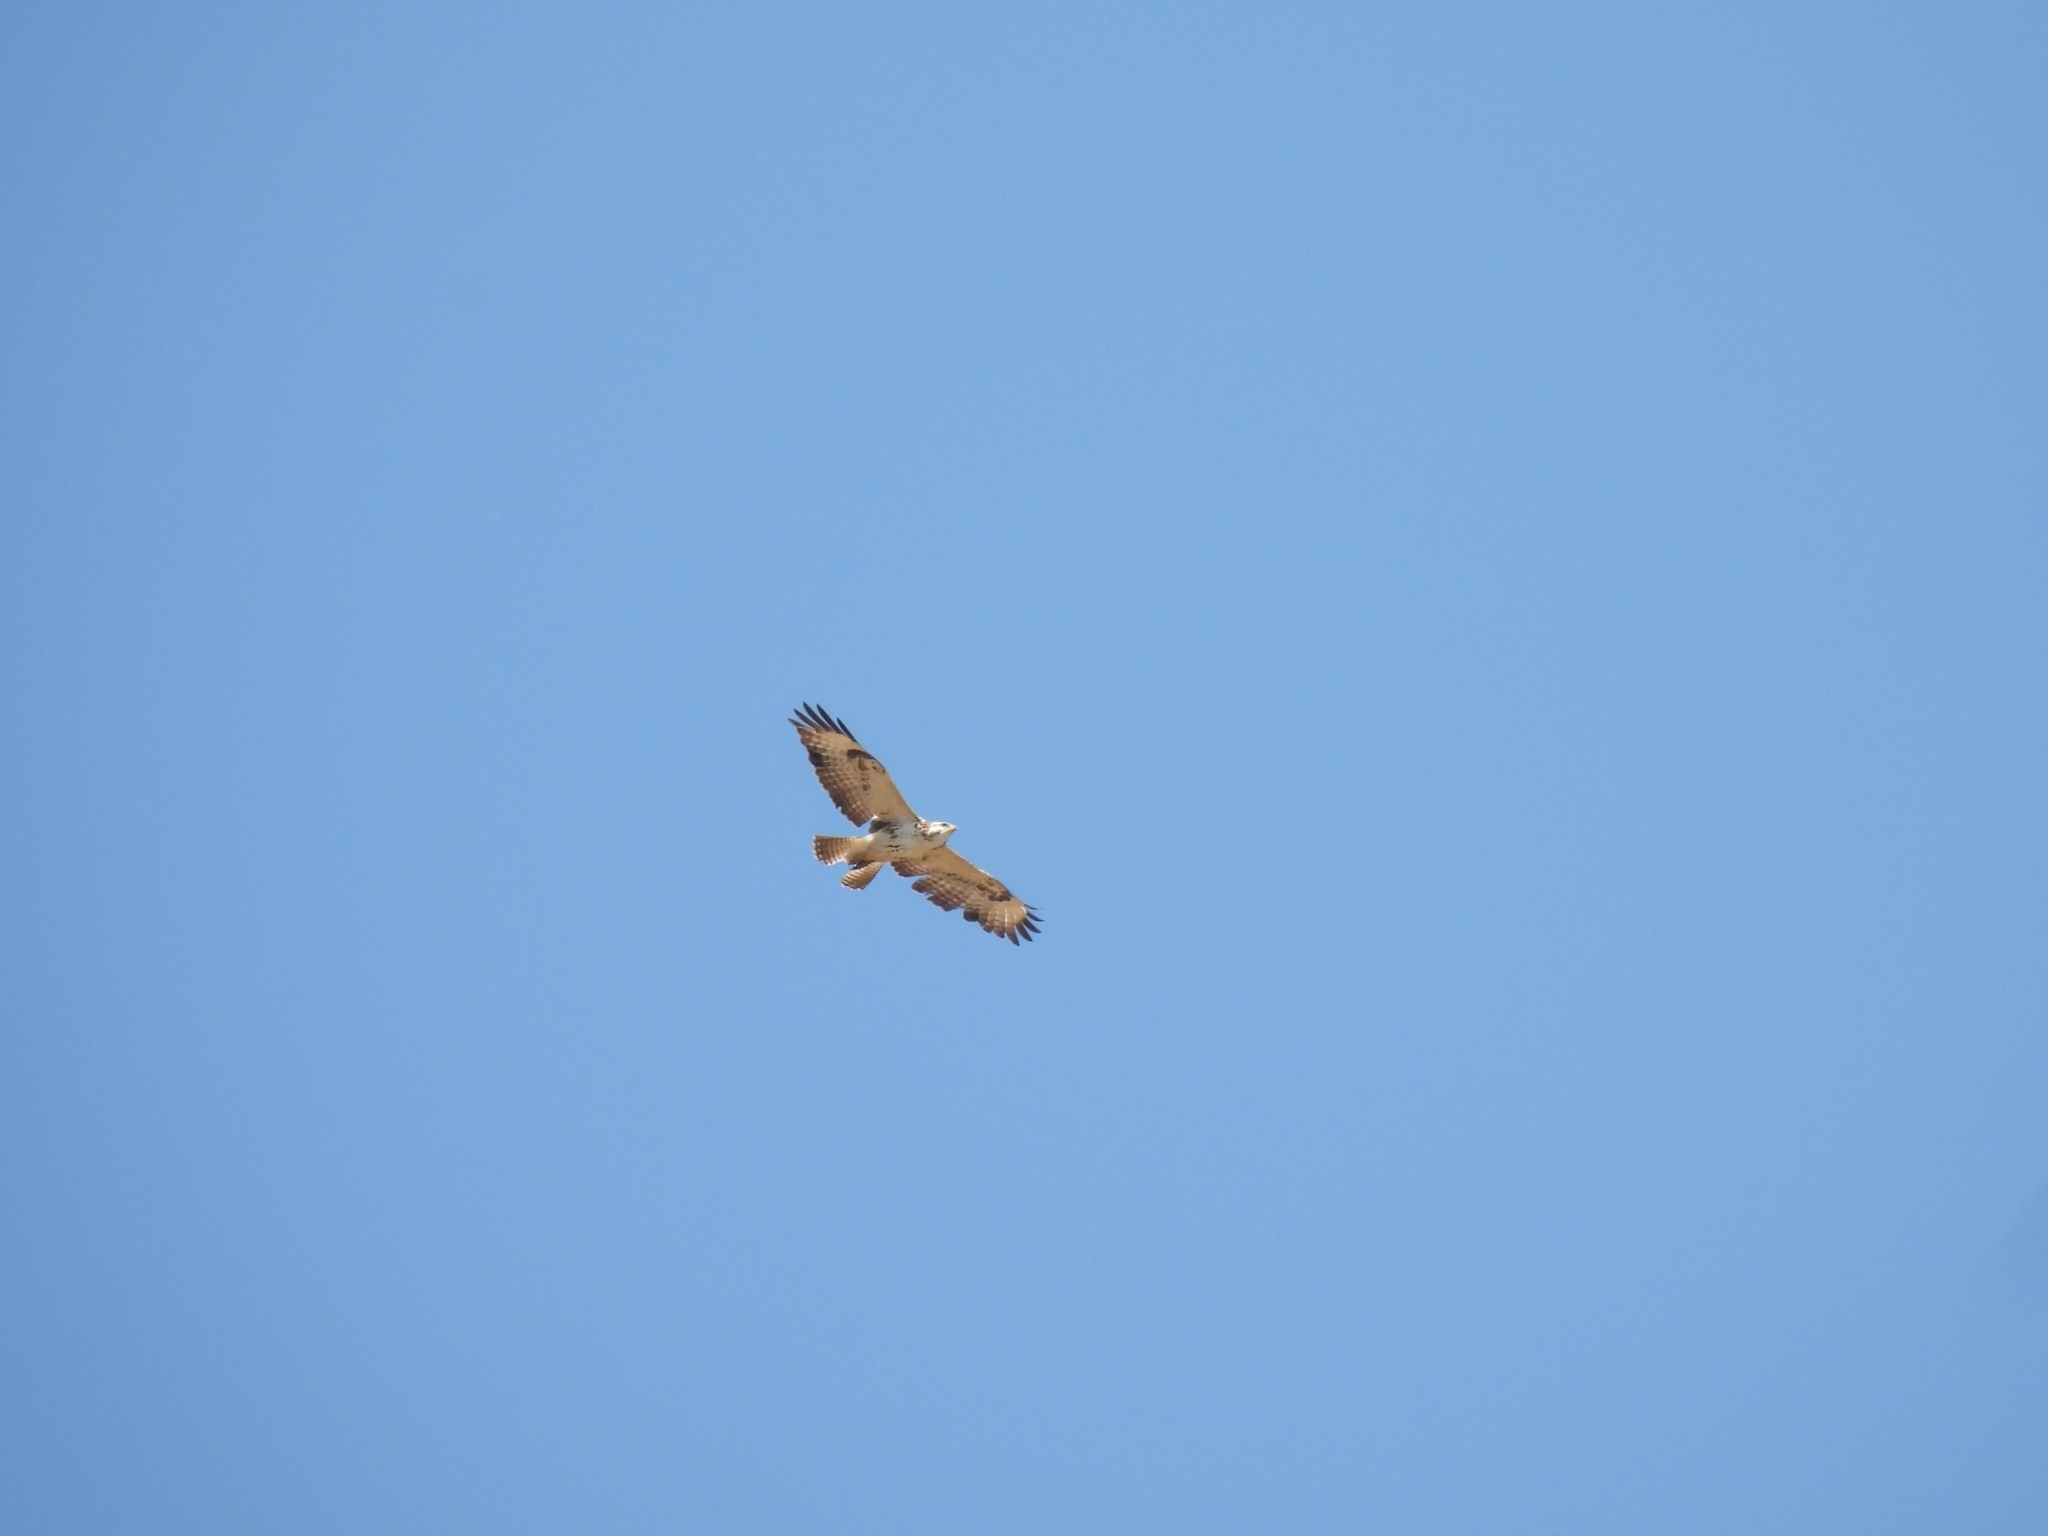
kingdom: Animalia
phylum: Chordata
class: Aves
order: Accipitriformes
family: Accipitridae
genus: Buteo
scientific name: Buteo buteo
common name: Common buzzard
